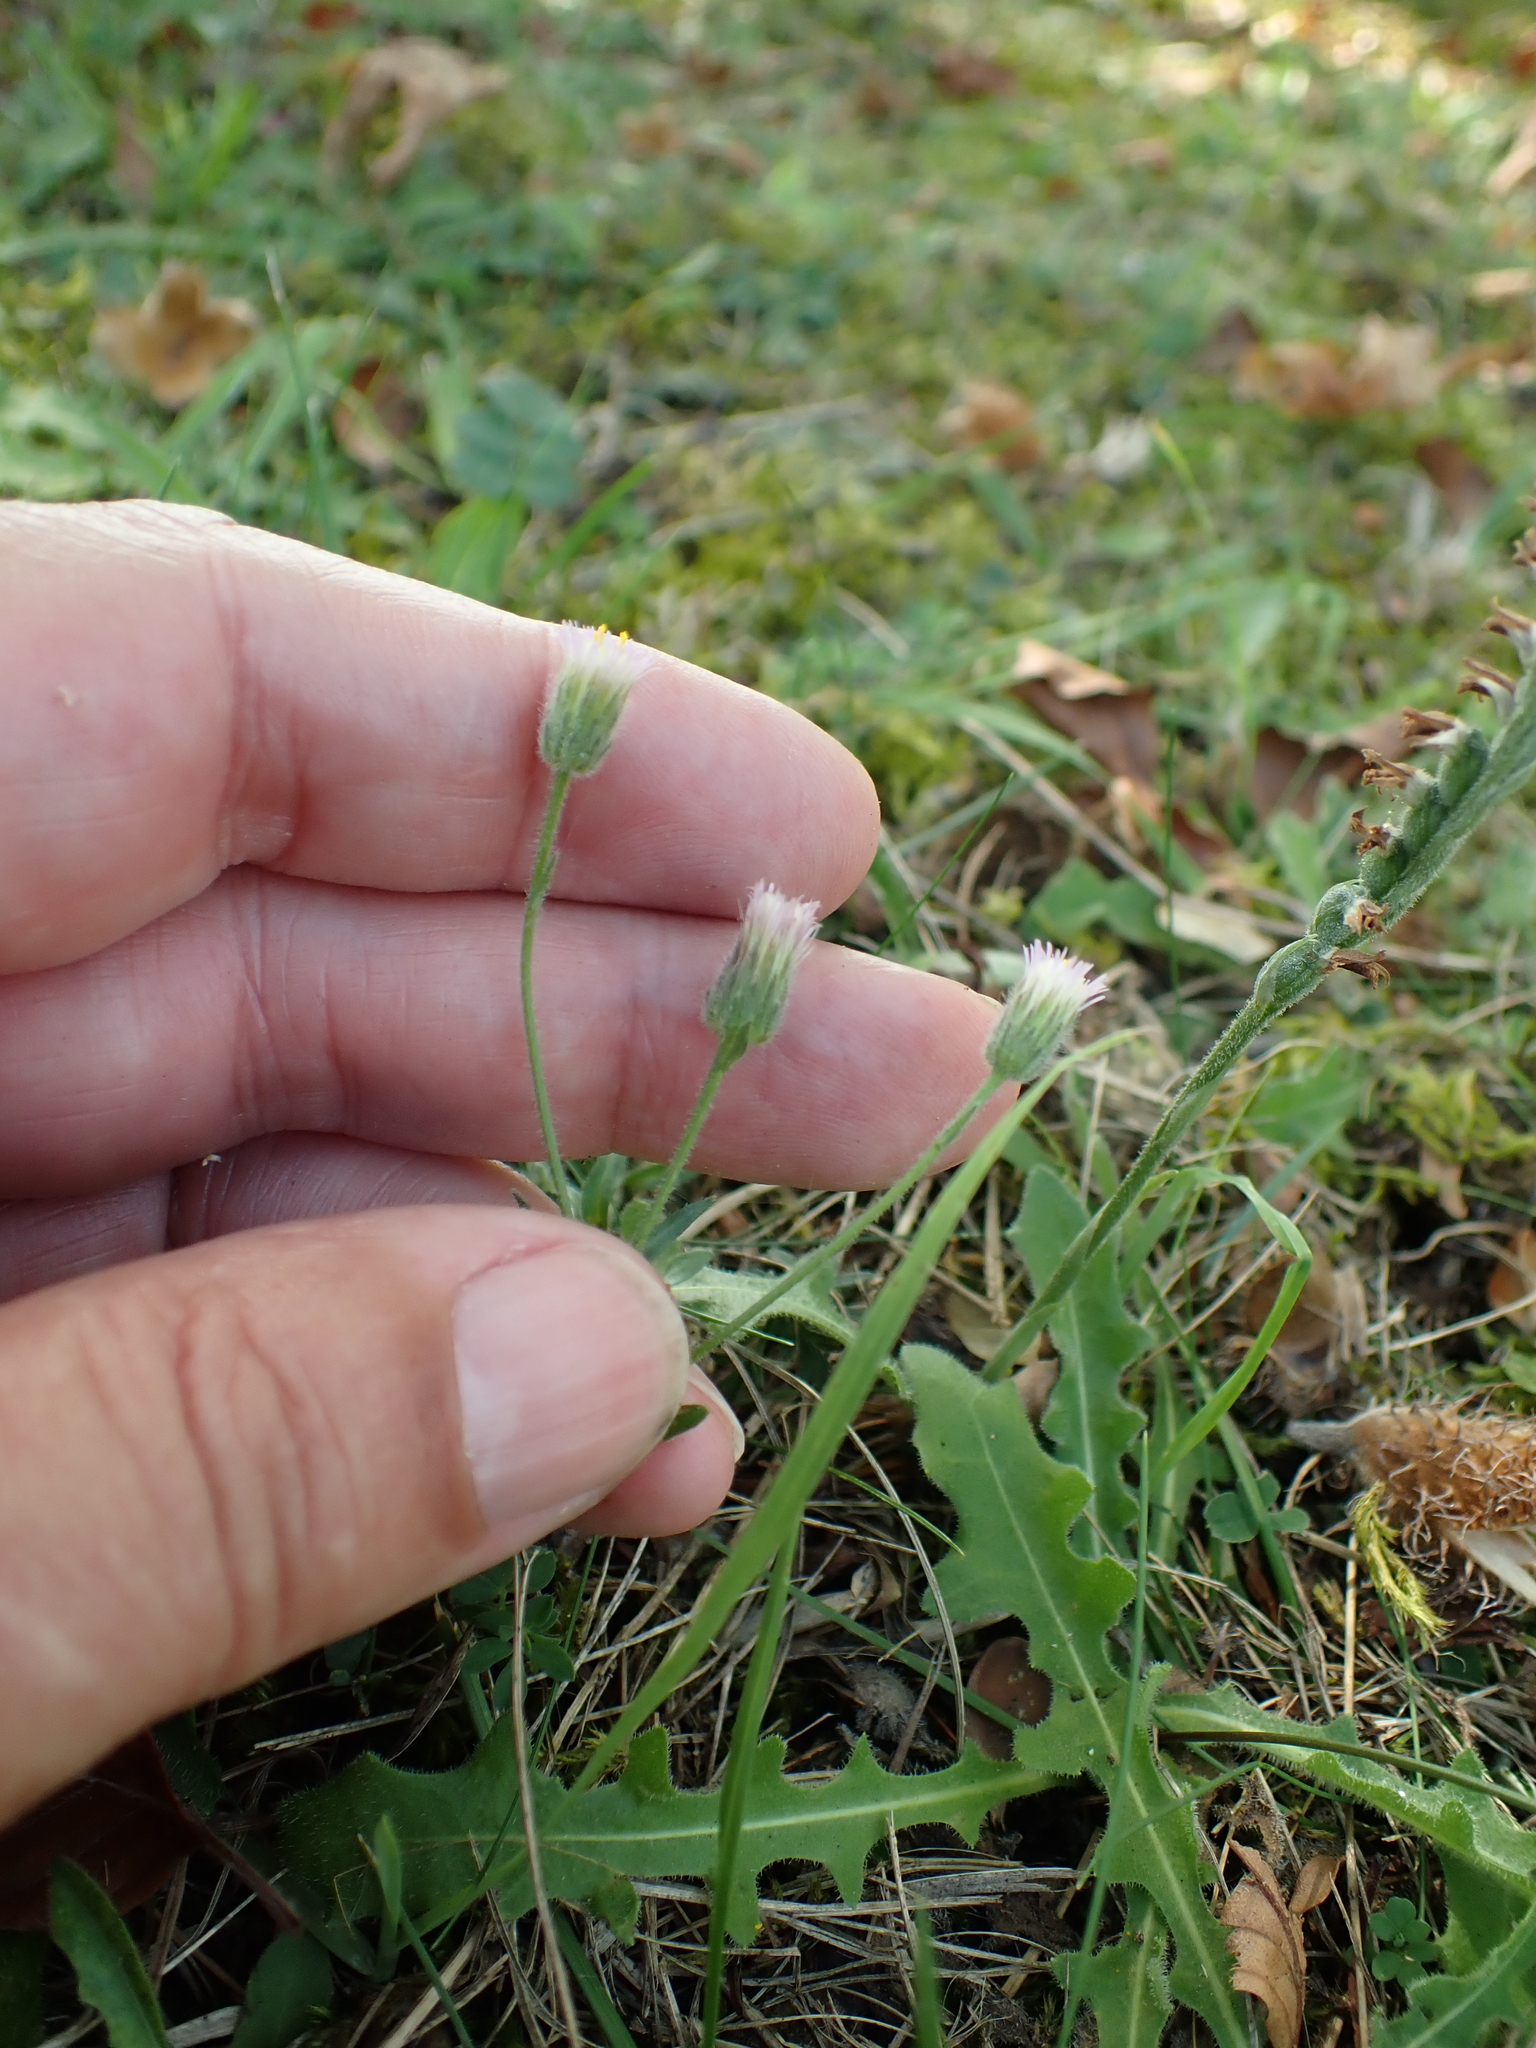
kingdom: Plantae
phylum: Tracheophyta
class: Magnoliopsida
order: Asterales
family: Asteraceae
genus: Erigeron
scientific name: Erigeron acris
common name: Blue fleabane
